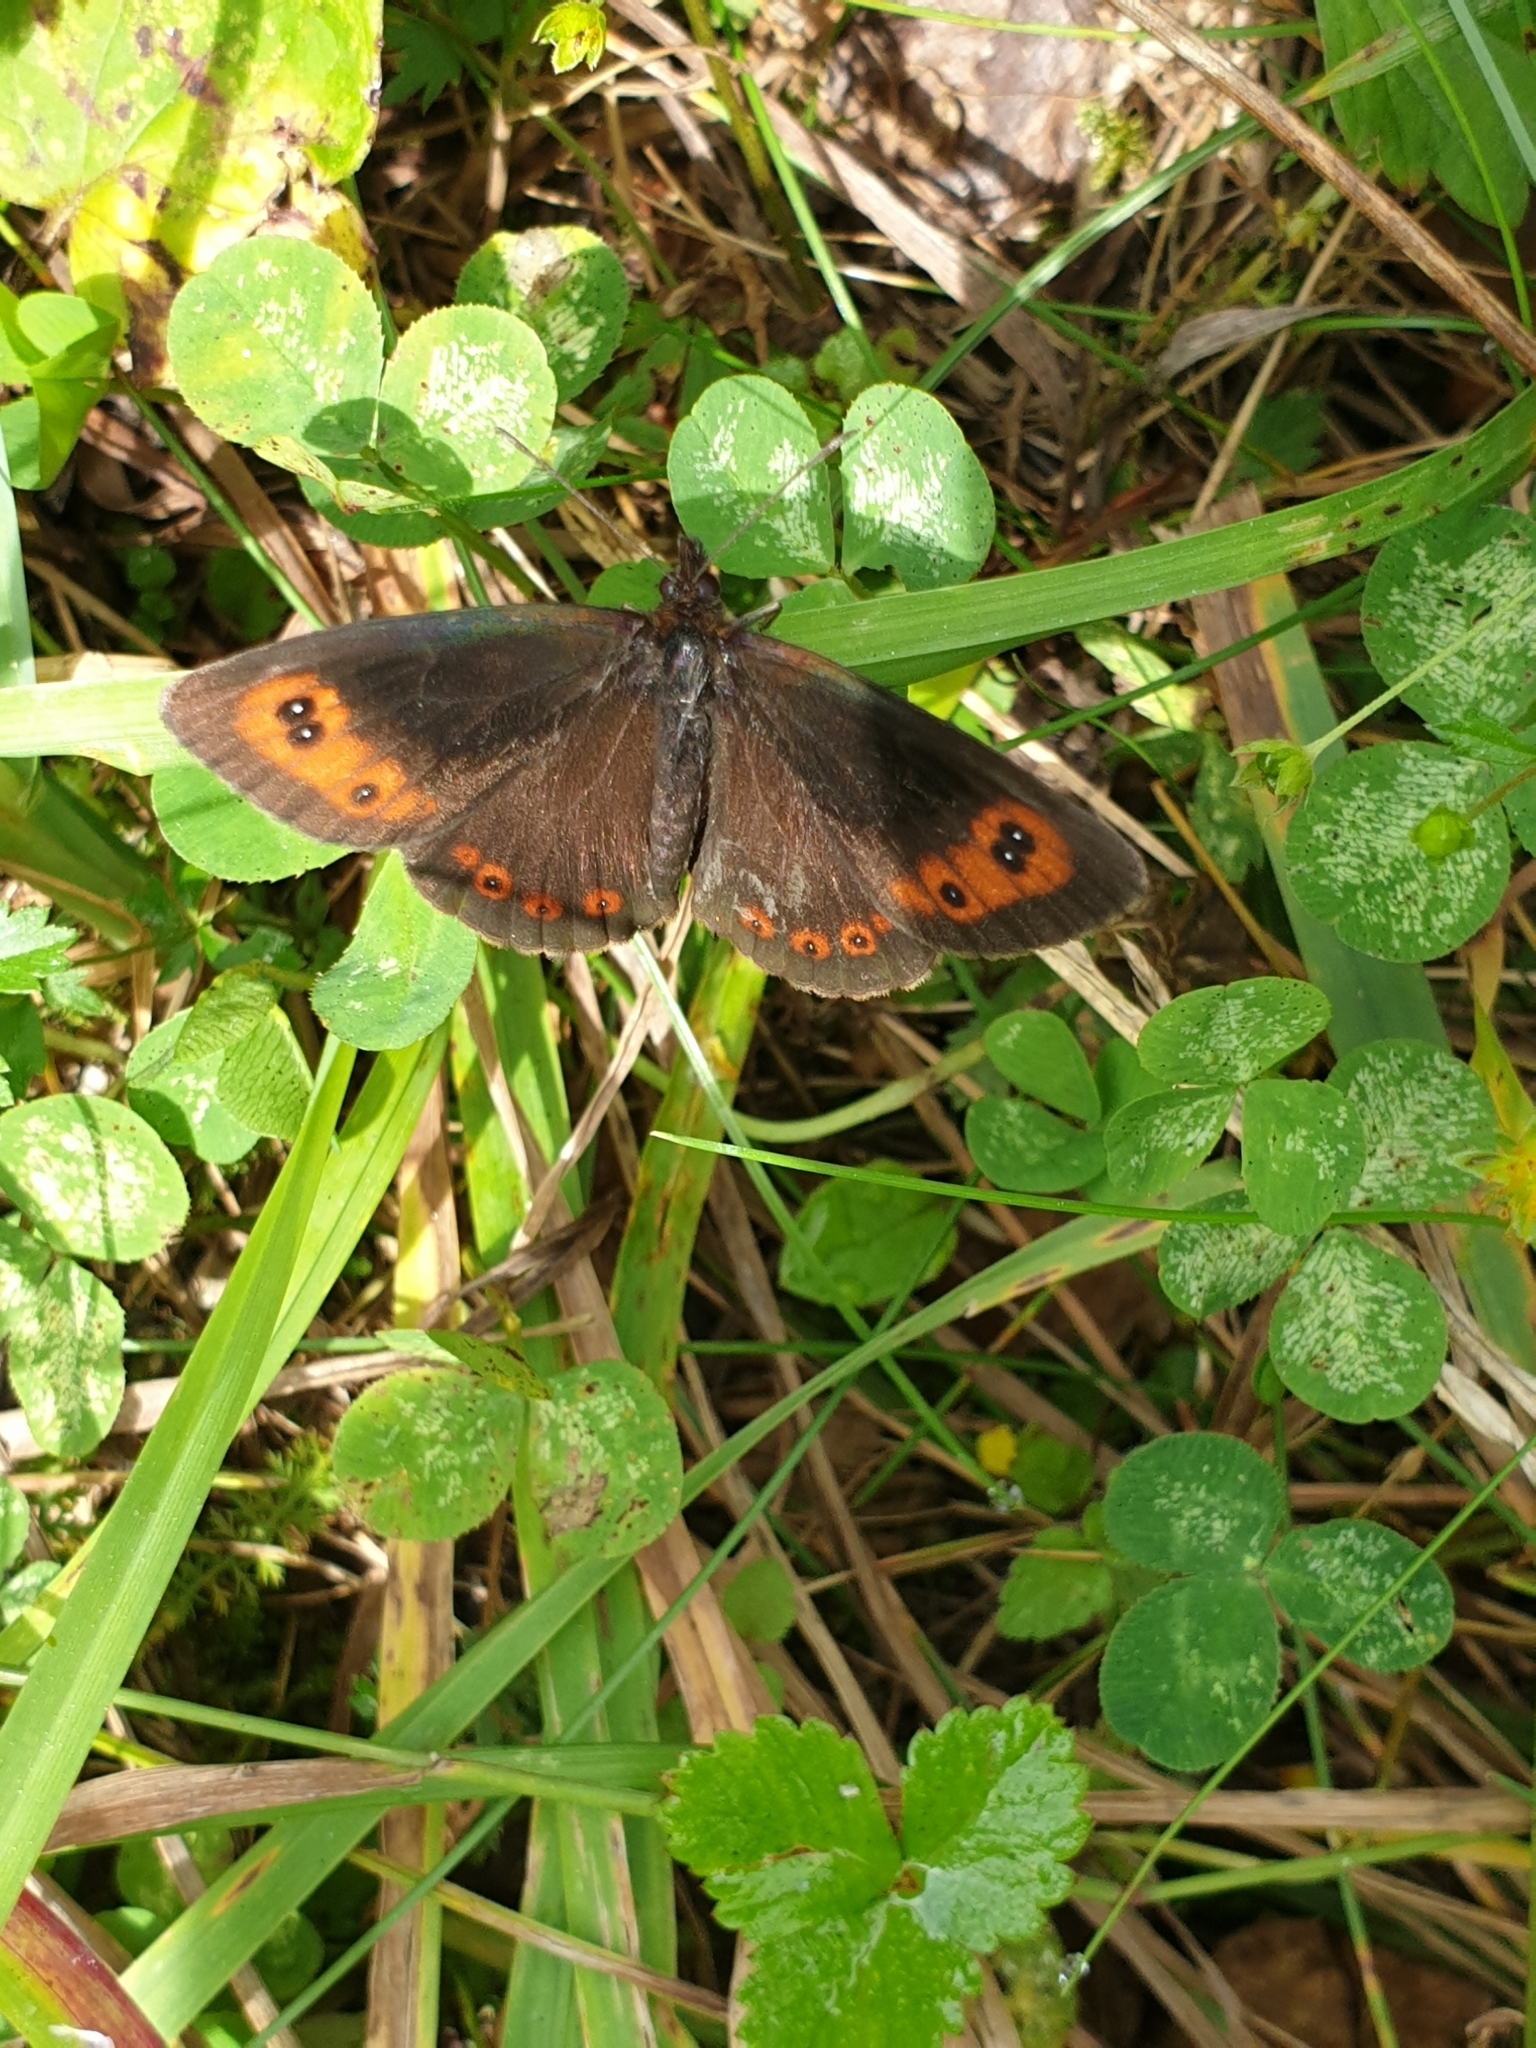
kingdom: Animalia
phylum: Arthropoda
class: Insecta
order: Lepidoptera
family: Nymphalidae
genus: Erebia
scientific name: Erebia aethiops
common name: Scotch argus
